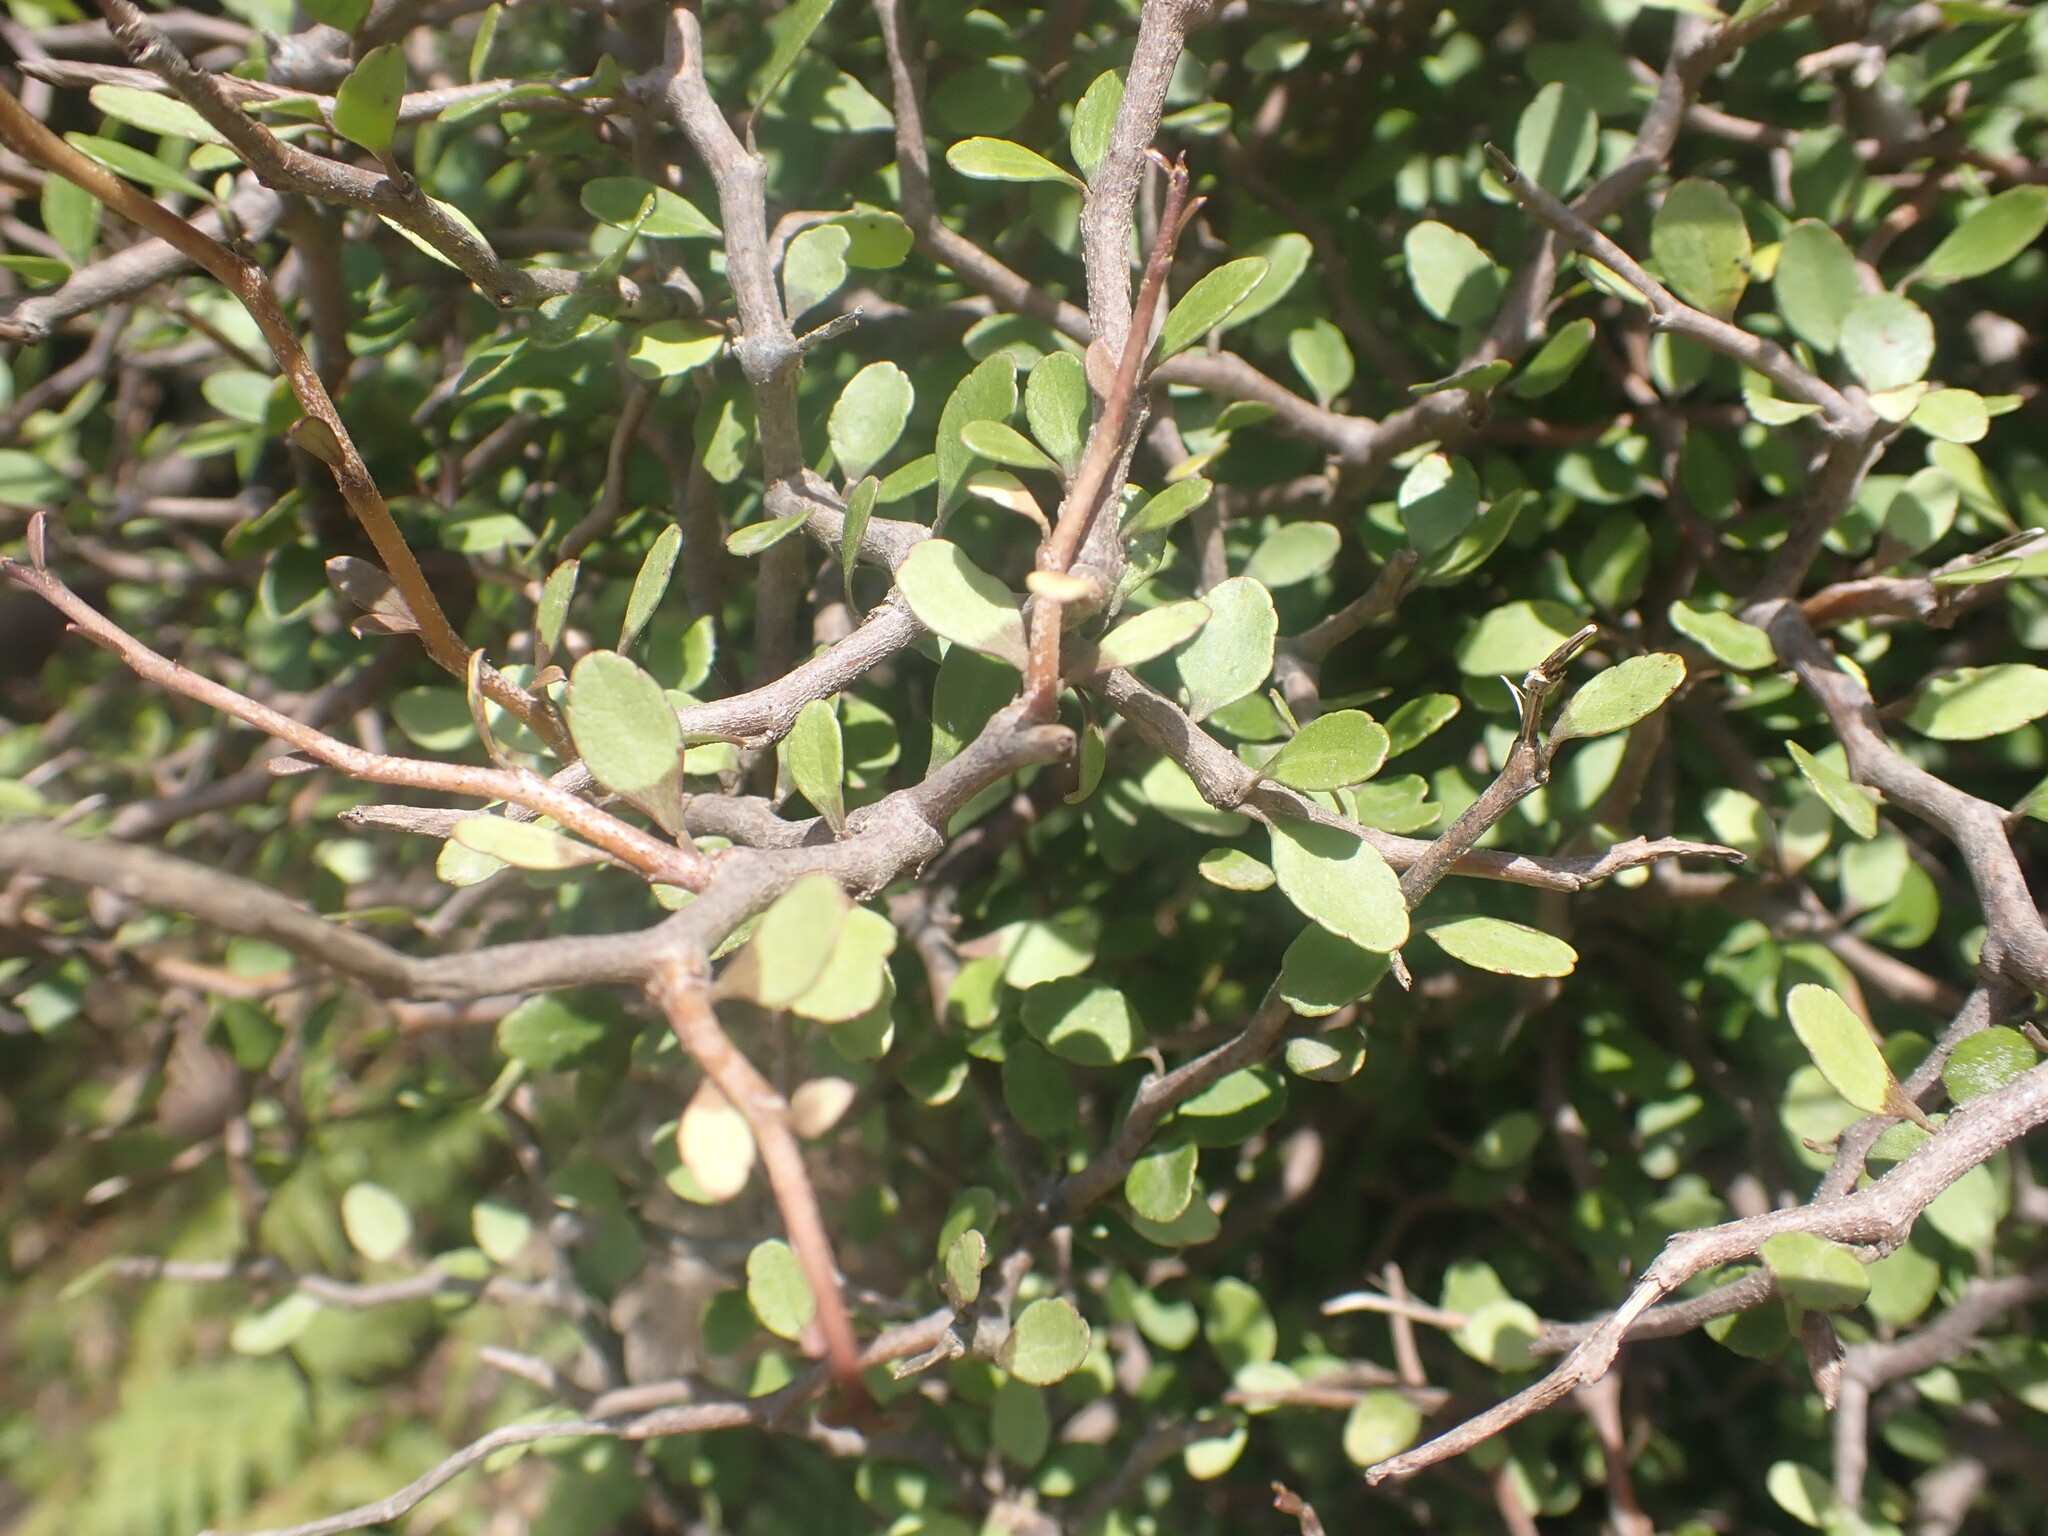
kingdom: Plantae
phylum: Tracheophyta
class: Magnoliopsida
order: Apiales
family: Araliaceae
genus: Raukaua
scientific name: Raukaua anomalus
